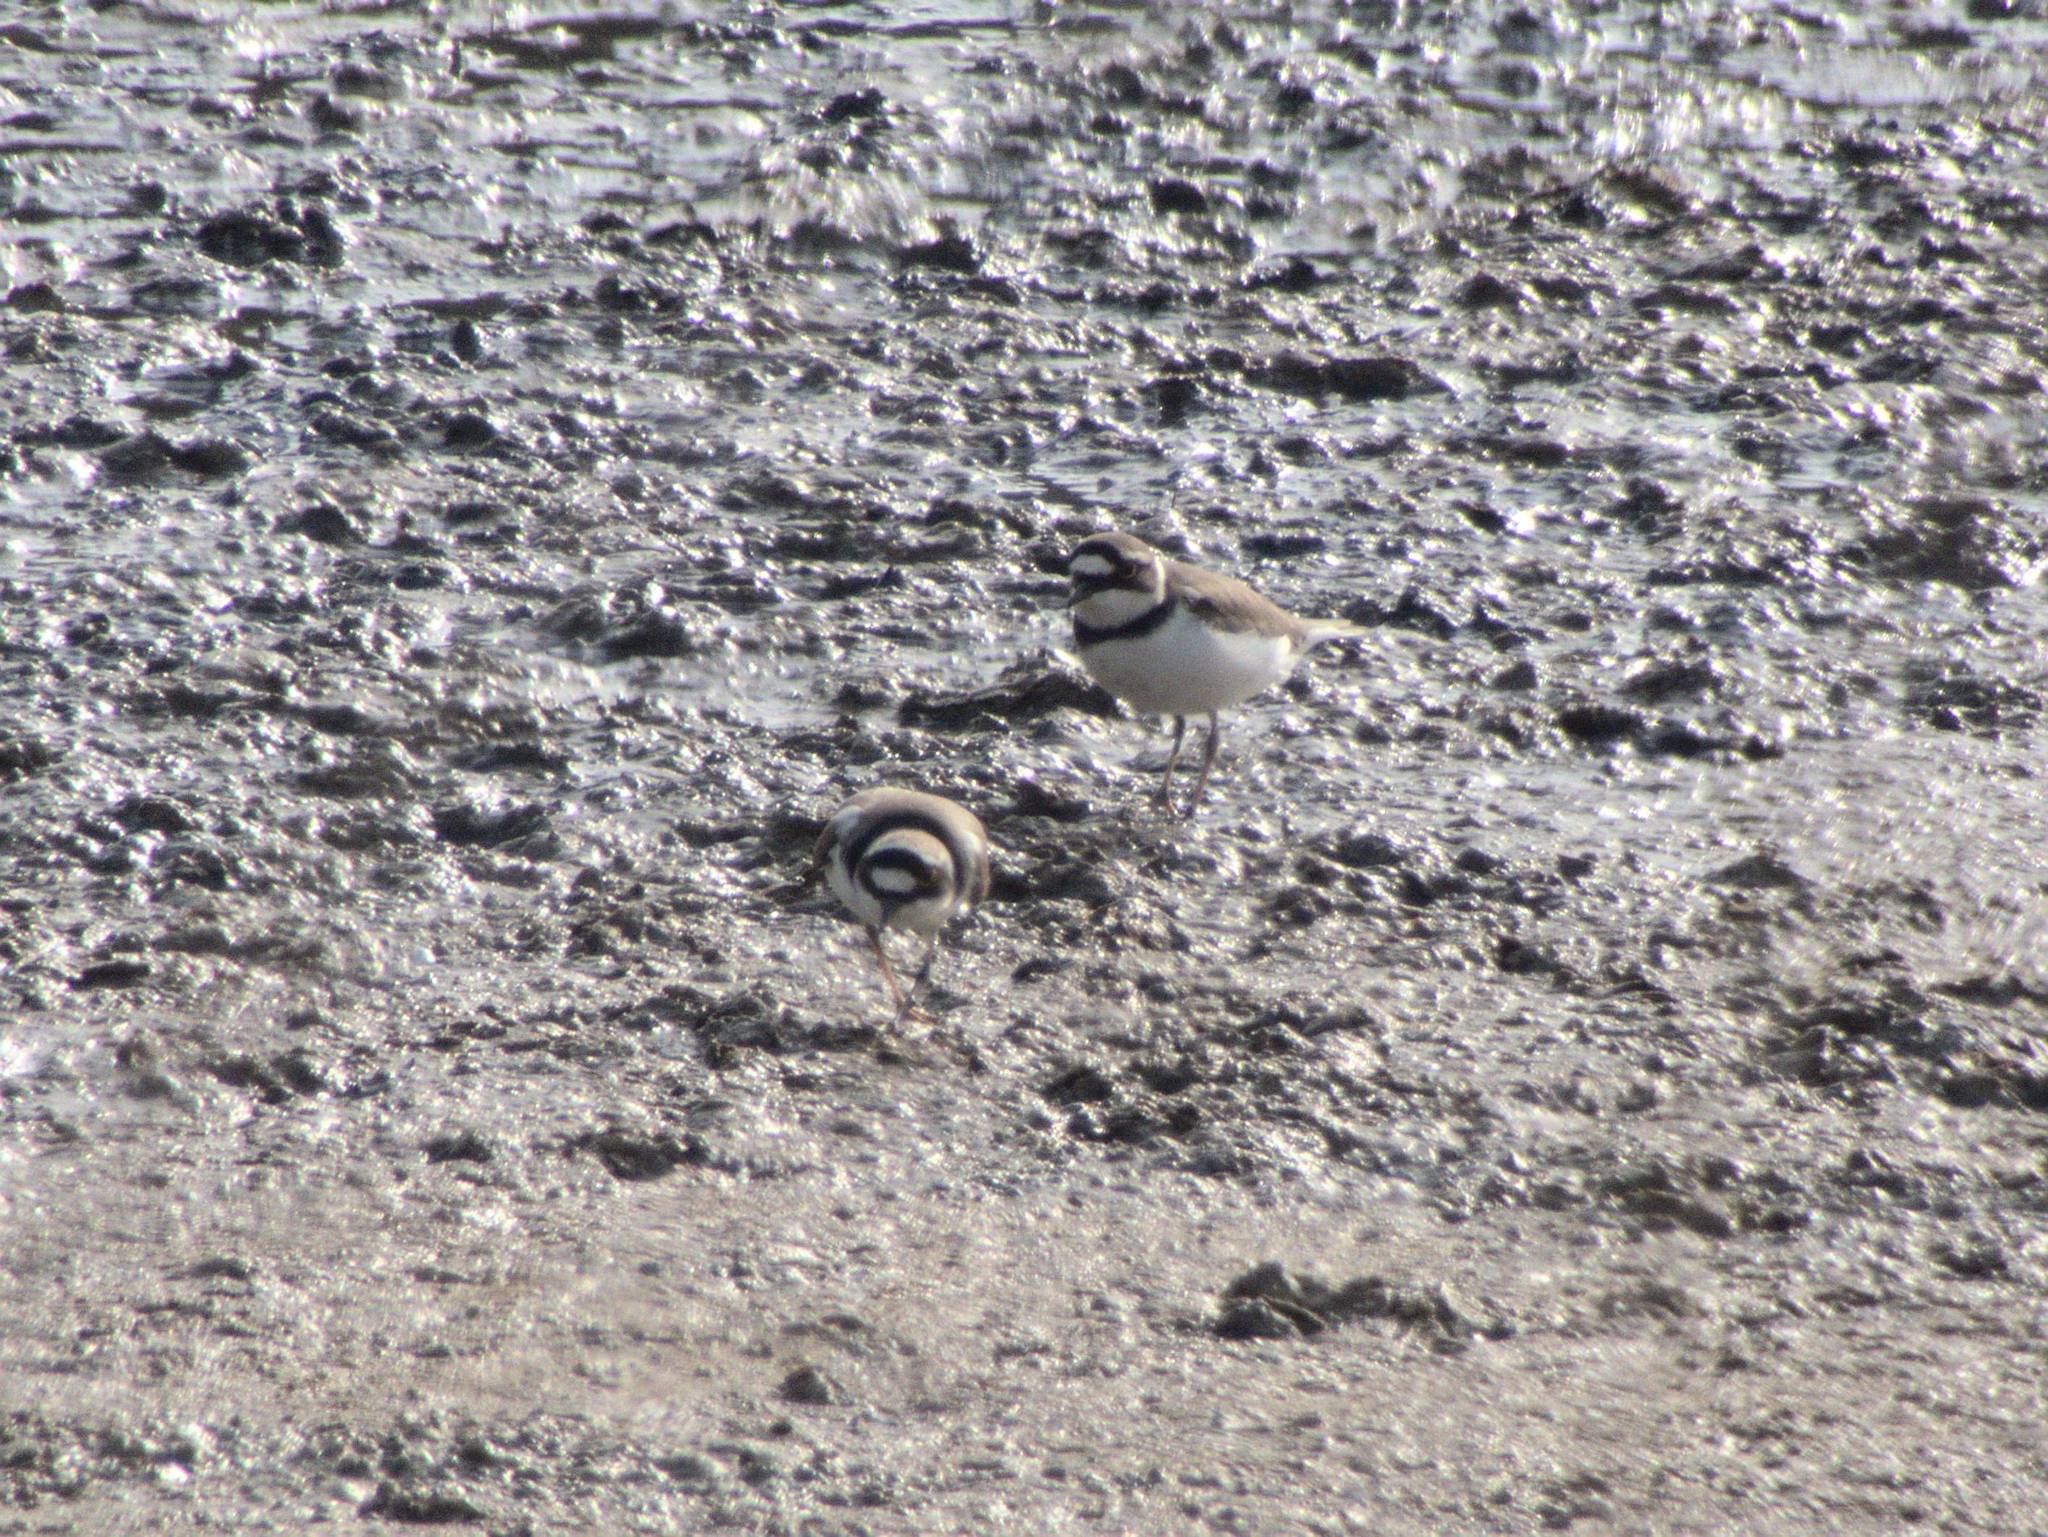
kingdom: Animalia
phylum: Chordata
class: Aves
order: Charadriiformes
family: Charadriidae
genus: Charadrius
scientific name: Charadrius dubius
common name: Little ringed plover
